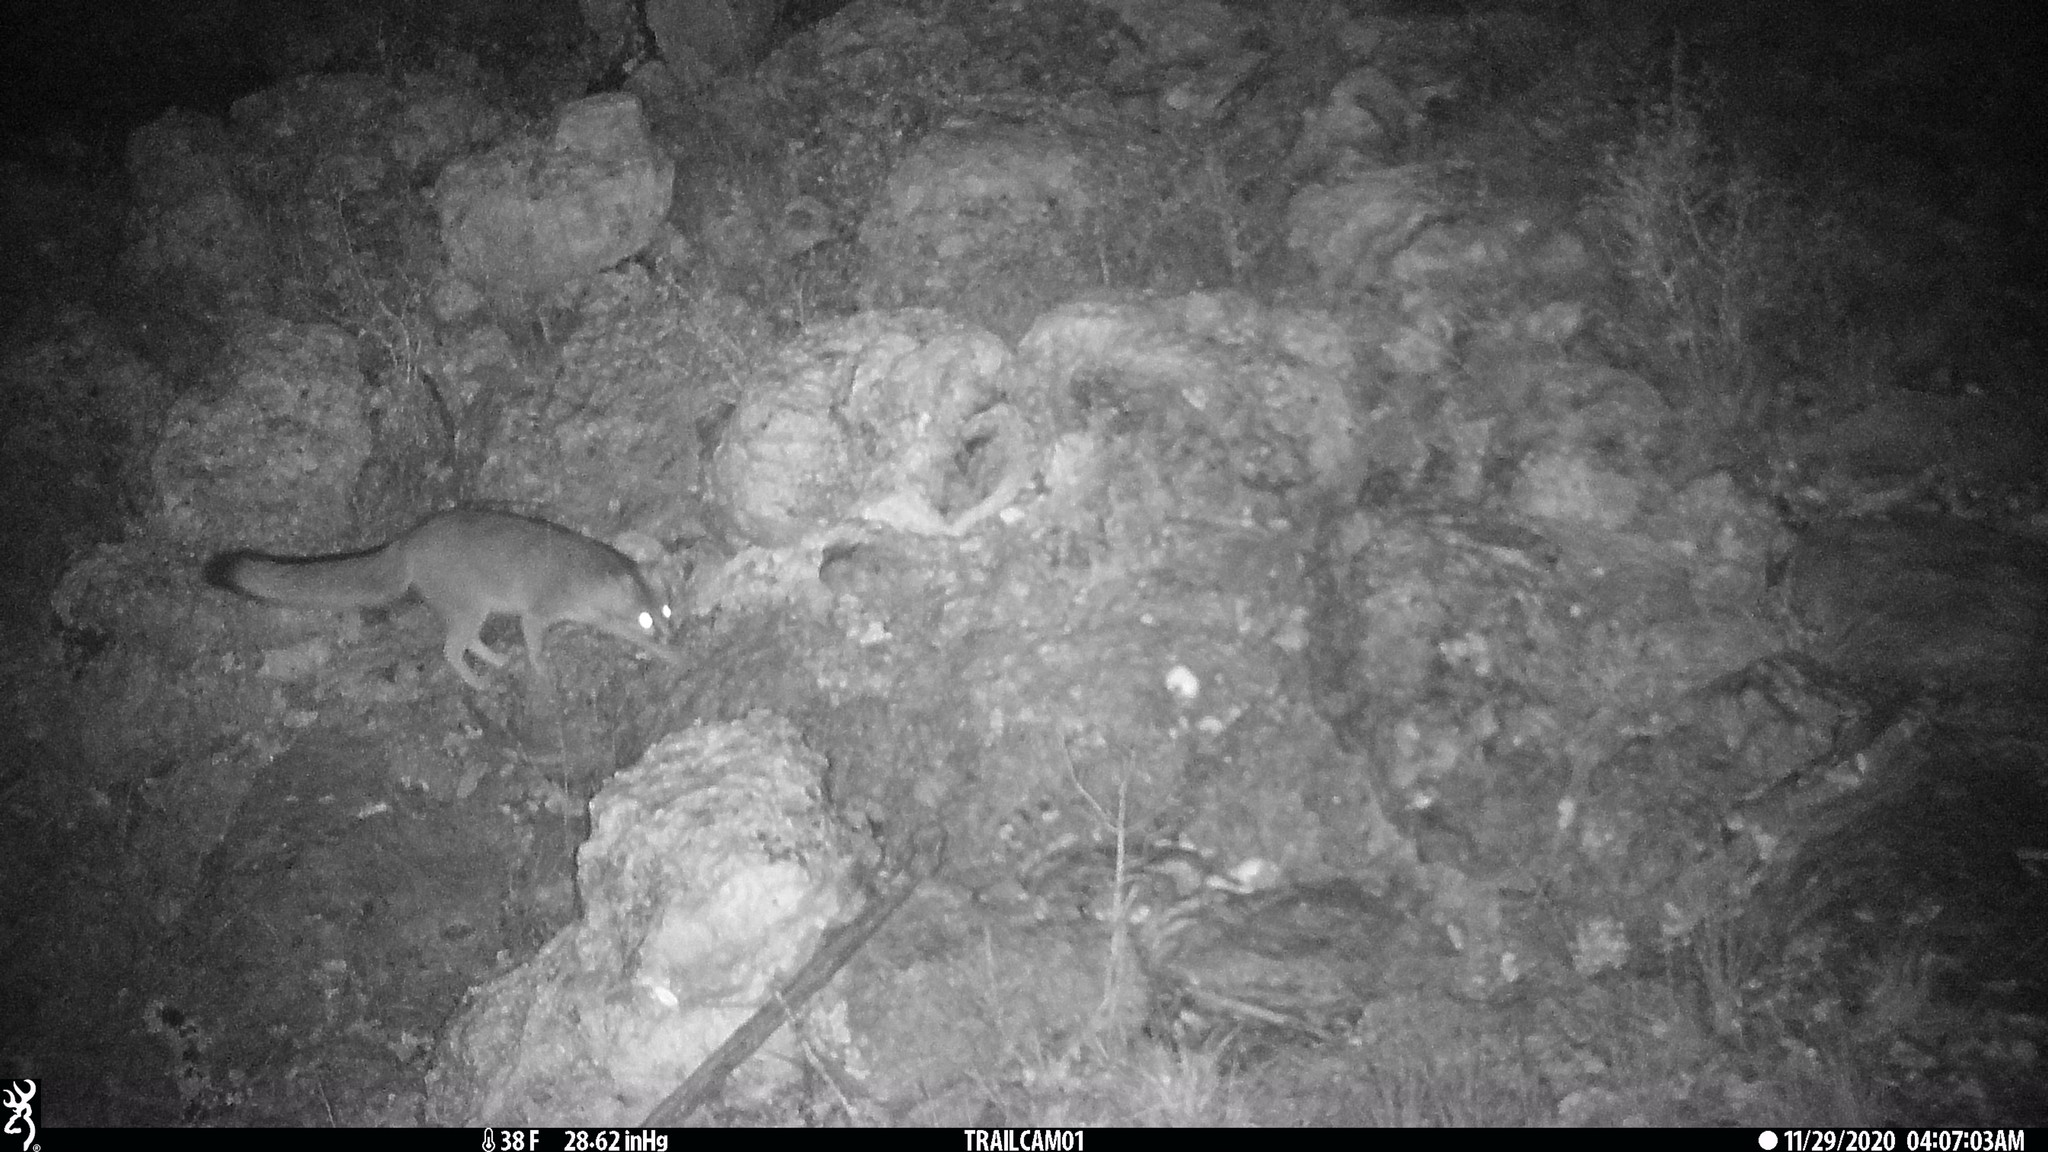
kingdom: Animalia
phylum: Chordata
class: Mammalia
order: Carnivora
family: Canidae
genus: Urocyon
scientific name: Urocyon cinereoargenteus
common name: Gray fox
